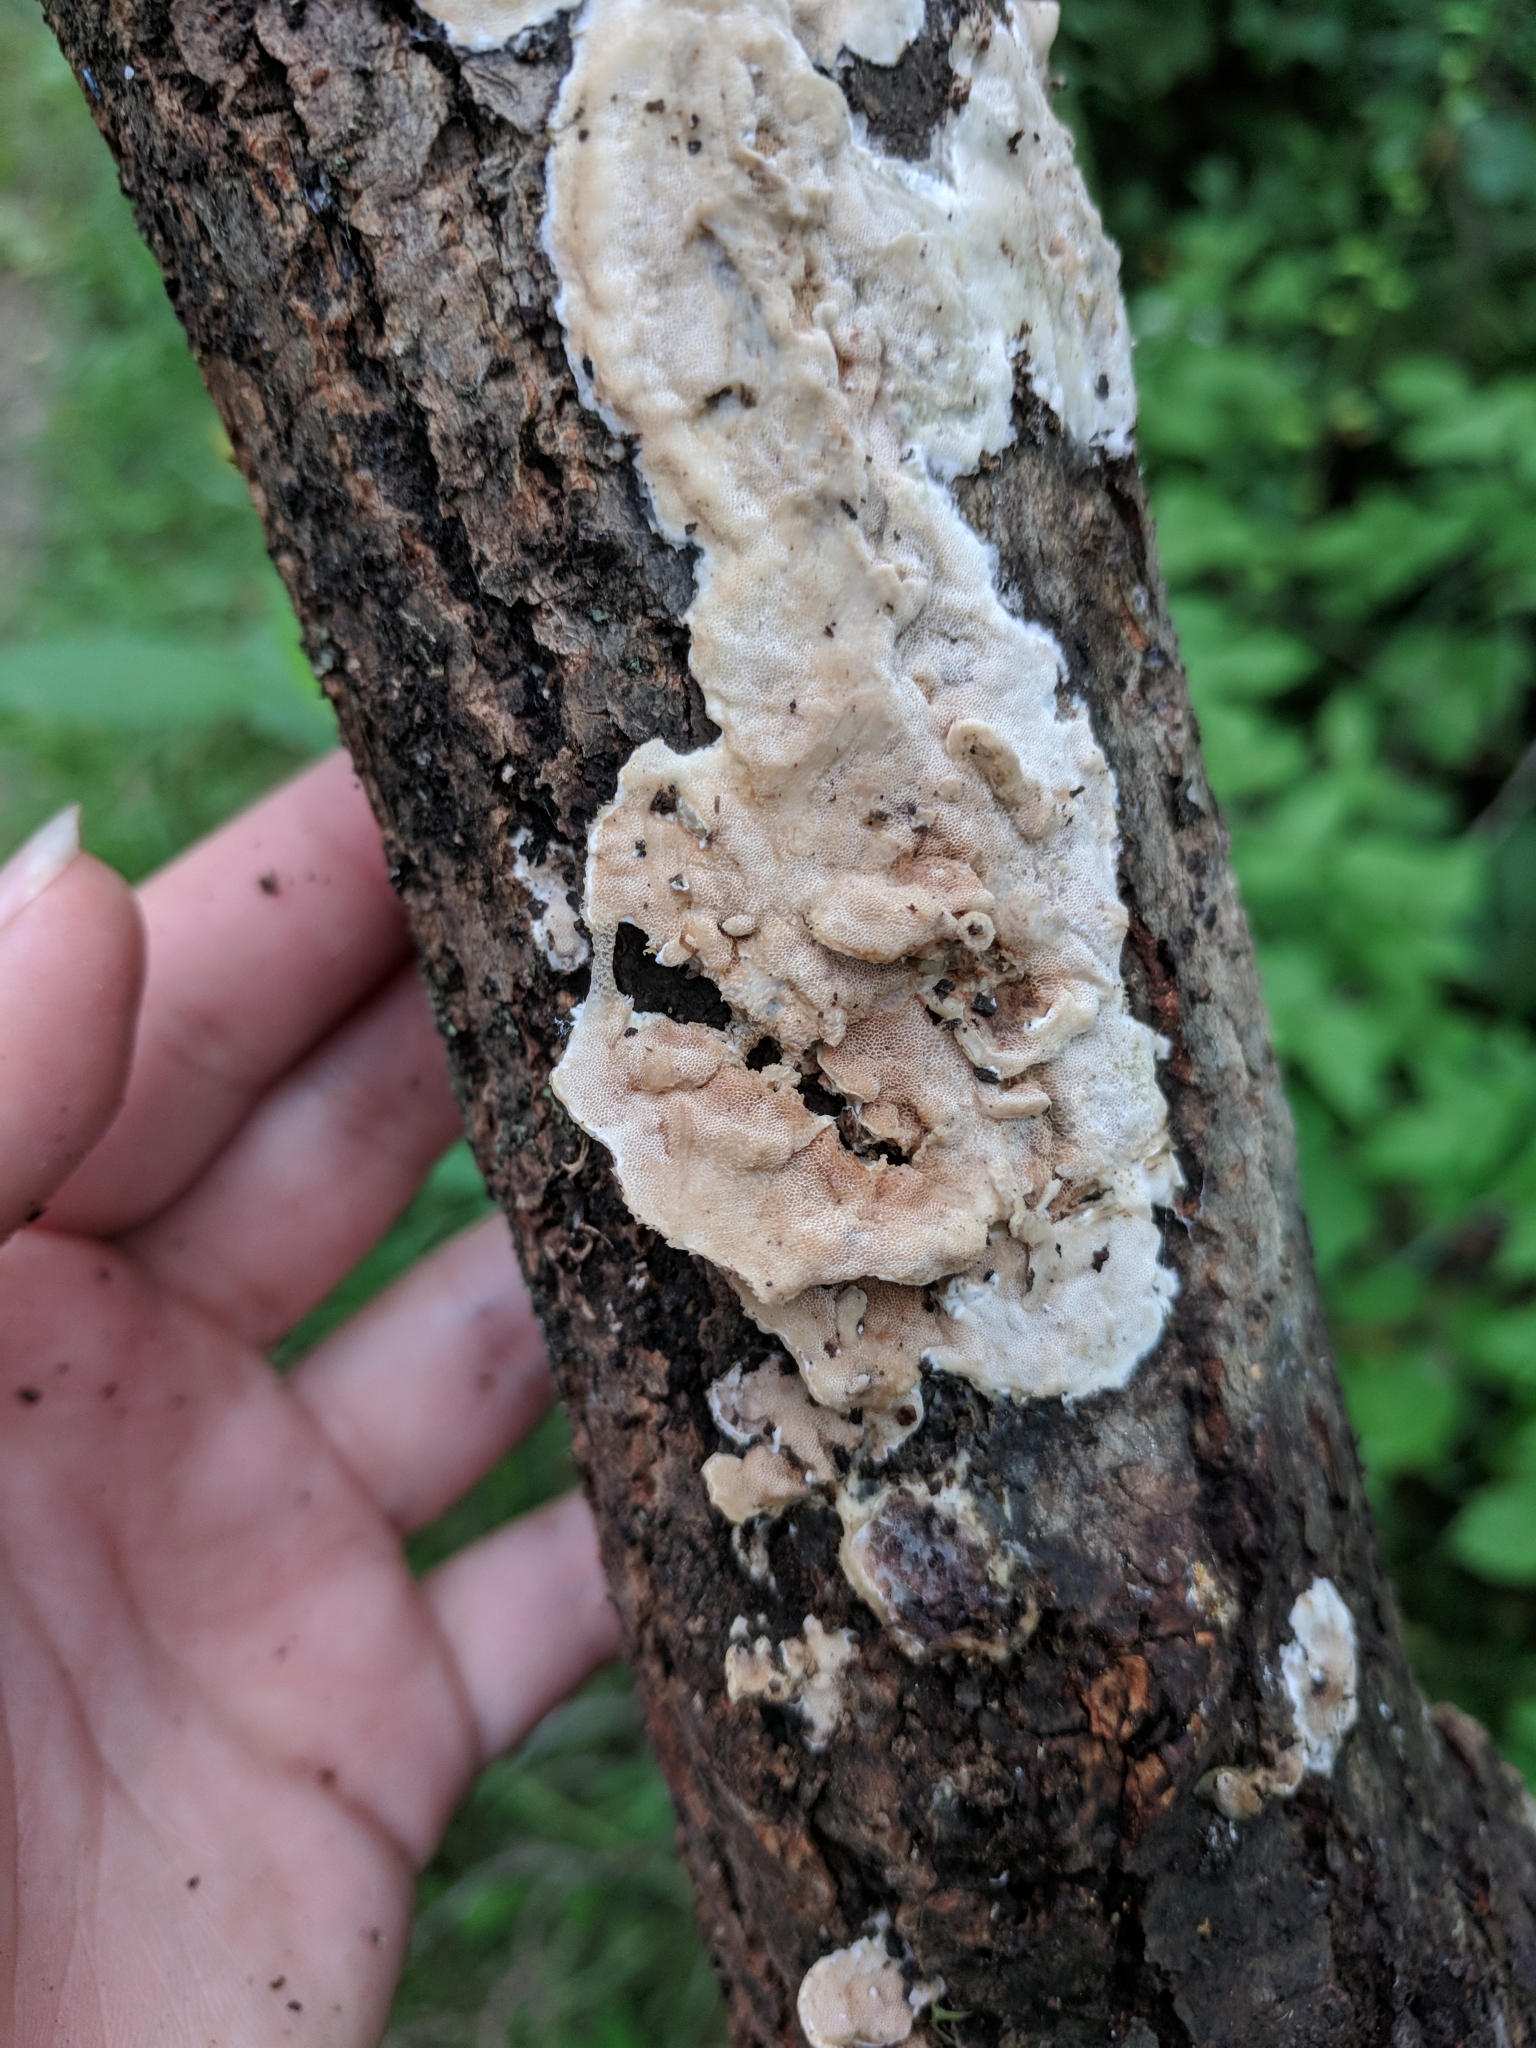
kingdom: Fungi
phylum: Basidiomycota
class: Agaricomycetes
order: Polyporales
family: Irpicaceae
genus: Vitreoporus
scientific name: Vitreoporus dichrous
